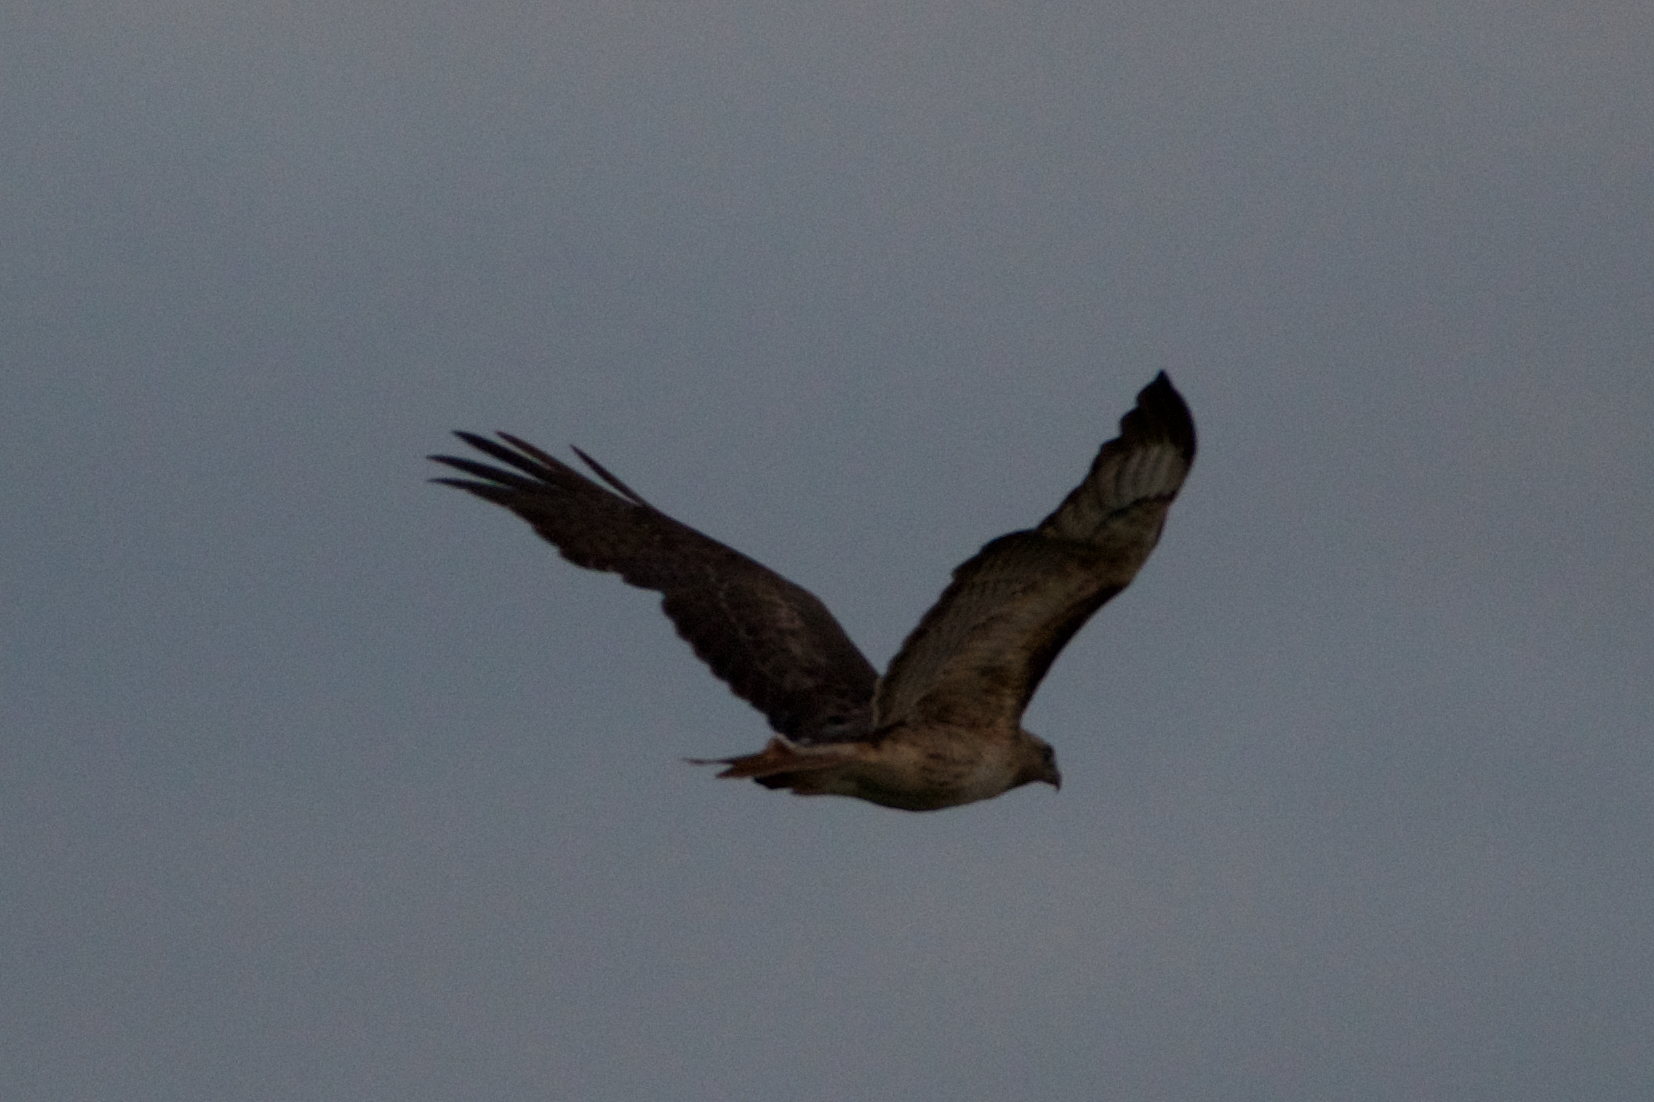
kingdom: Animalia
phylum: Chordata
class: Aves
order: Accipitriformes
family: Accipitridae
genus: Buteo
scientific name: Buteo jamaicensis
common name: Red-tailed hawk
